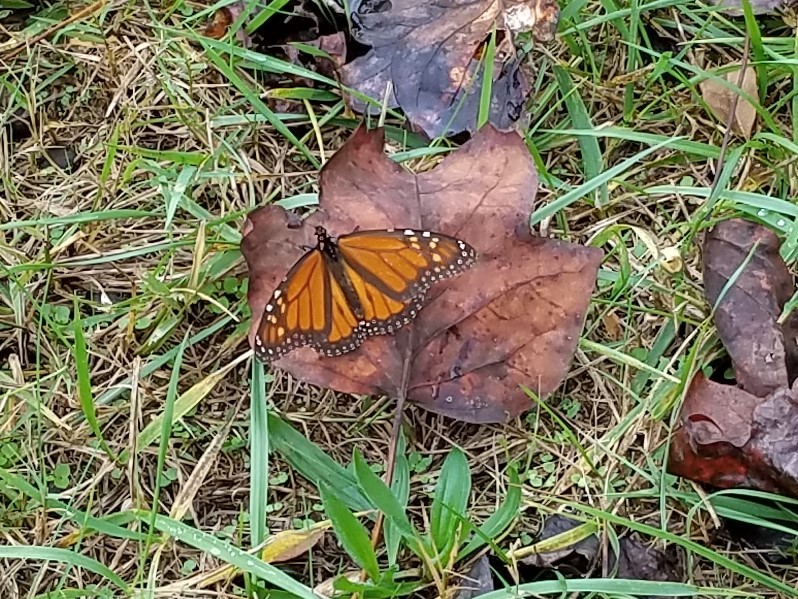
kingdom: Animalia
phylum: Arthropoda
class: Insecta
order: Lepidoptera
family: Nymphalidae
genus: Danaus
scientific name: Danaus plexippus
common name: Monarch
